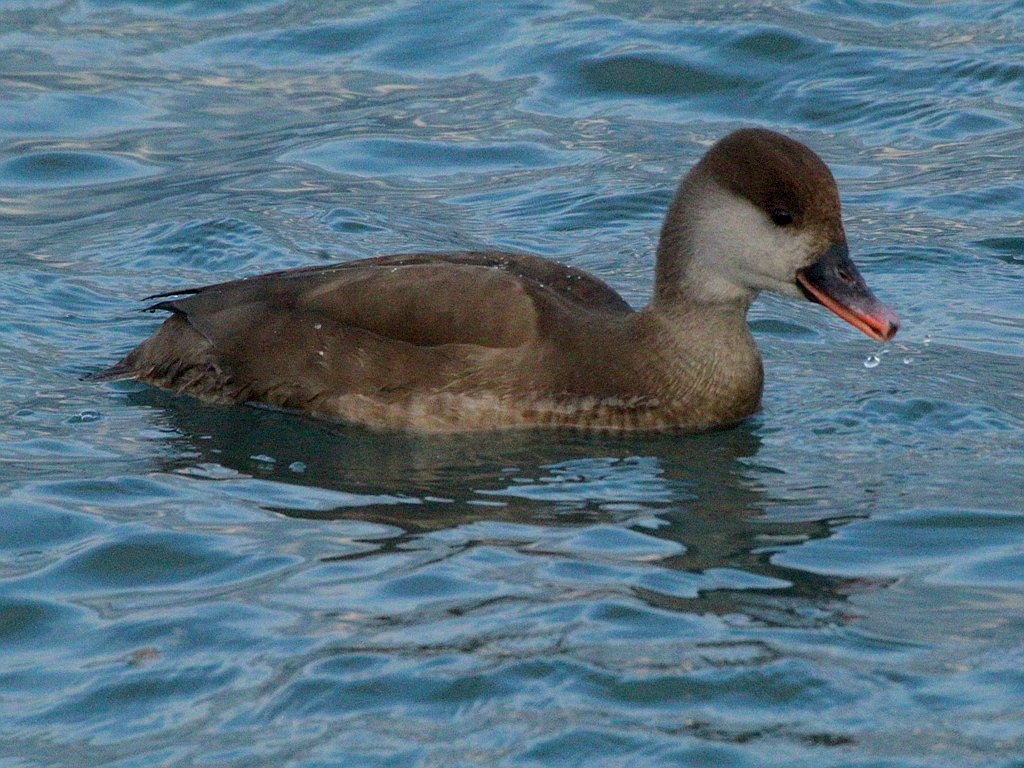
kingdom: Animalia
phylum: Chordata
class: Aves
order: Anseriformes
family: Anatidae
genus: Netta
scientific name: Netta rufina
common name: Red-crested pochard
